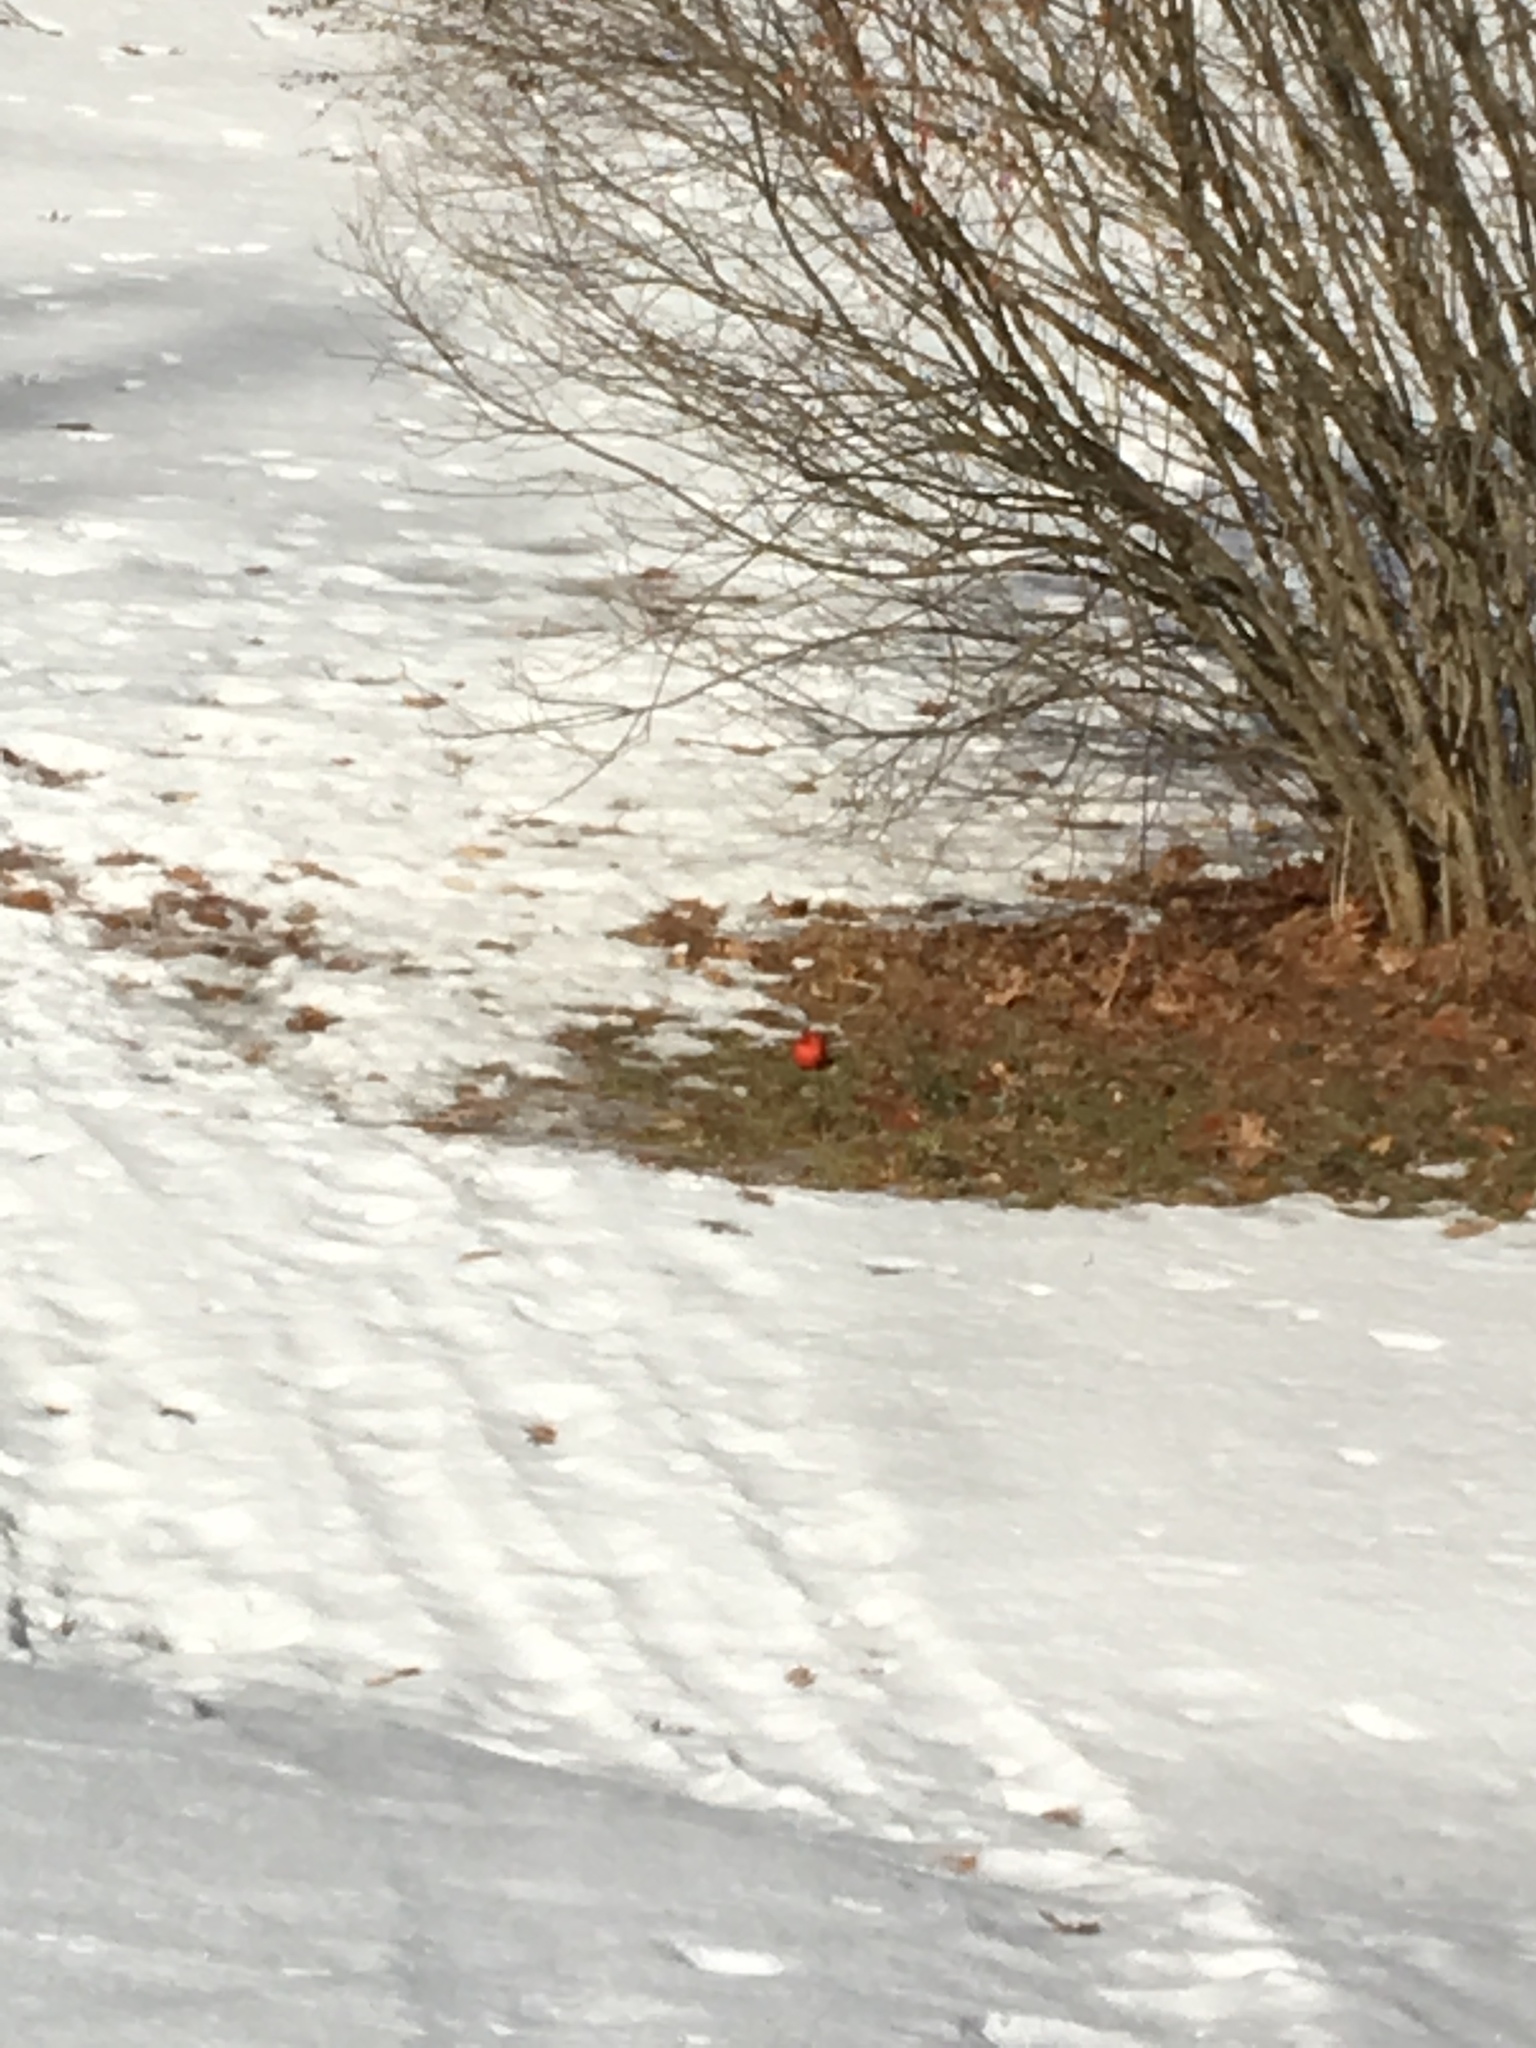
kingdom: Animalia
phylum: Chordata
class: Aves
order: Passeriformes
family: Cardinalidae
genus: Cardinalis
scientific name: Cardinalis cardinalis
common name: Northern cardinal
